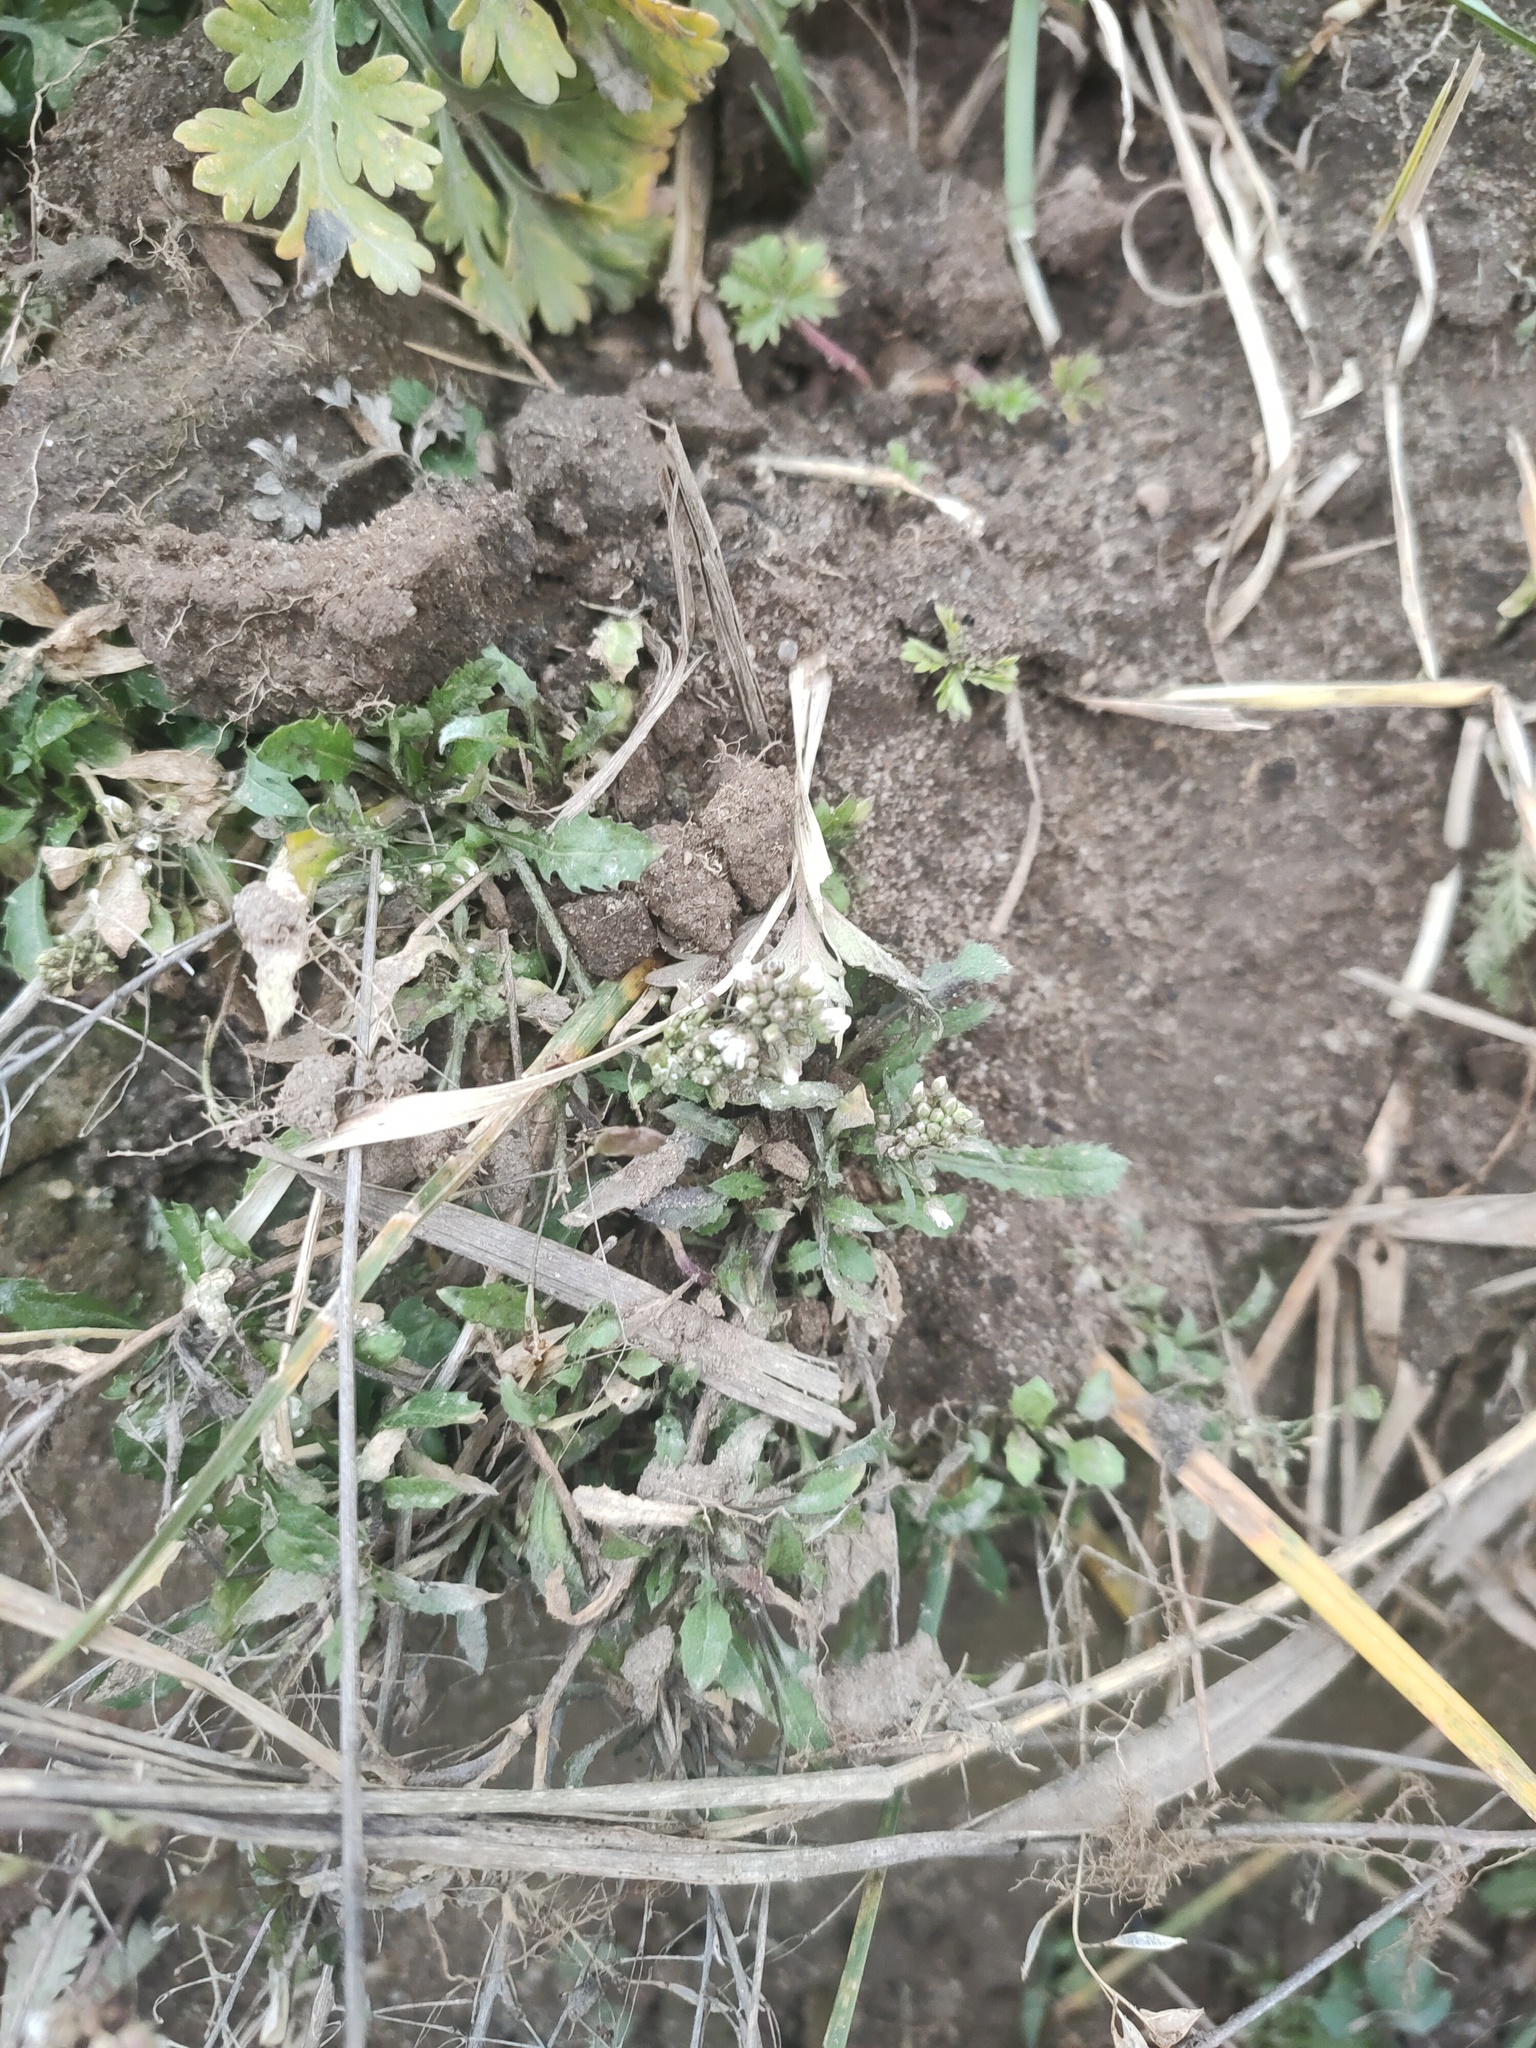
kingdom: Plantae
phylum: Tracheophyta
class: Magnoliopsida
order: Brassicales
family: Brassicaceae
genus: Capsella
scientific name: Capsella bursa-pastoris
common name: Shepherd's purse
